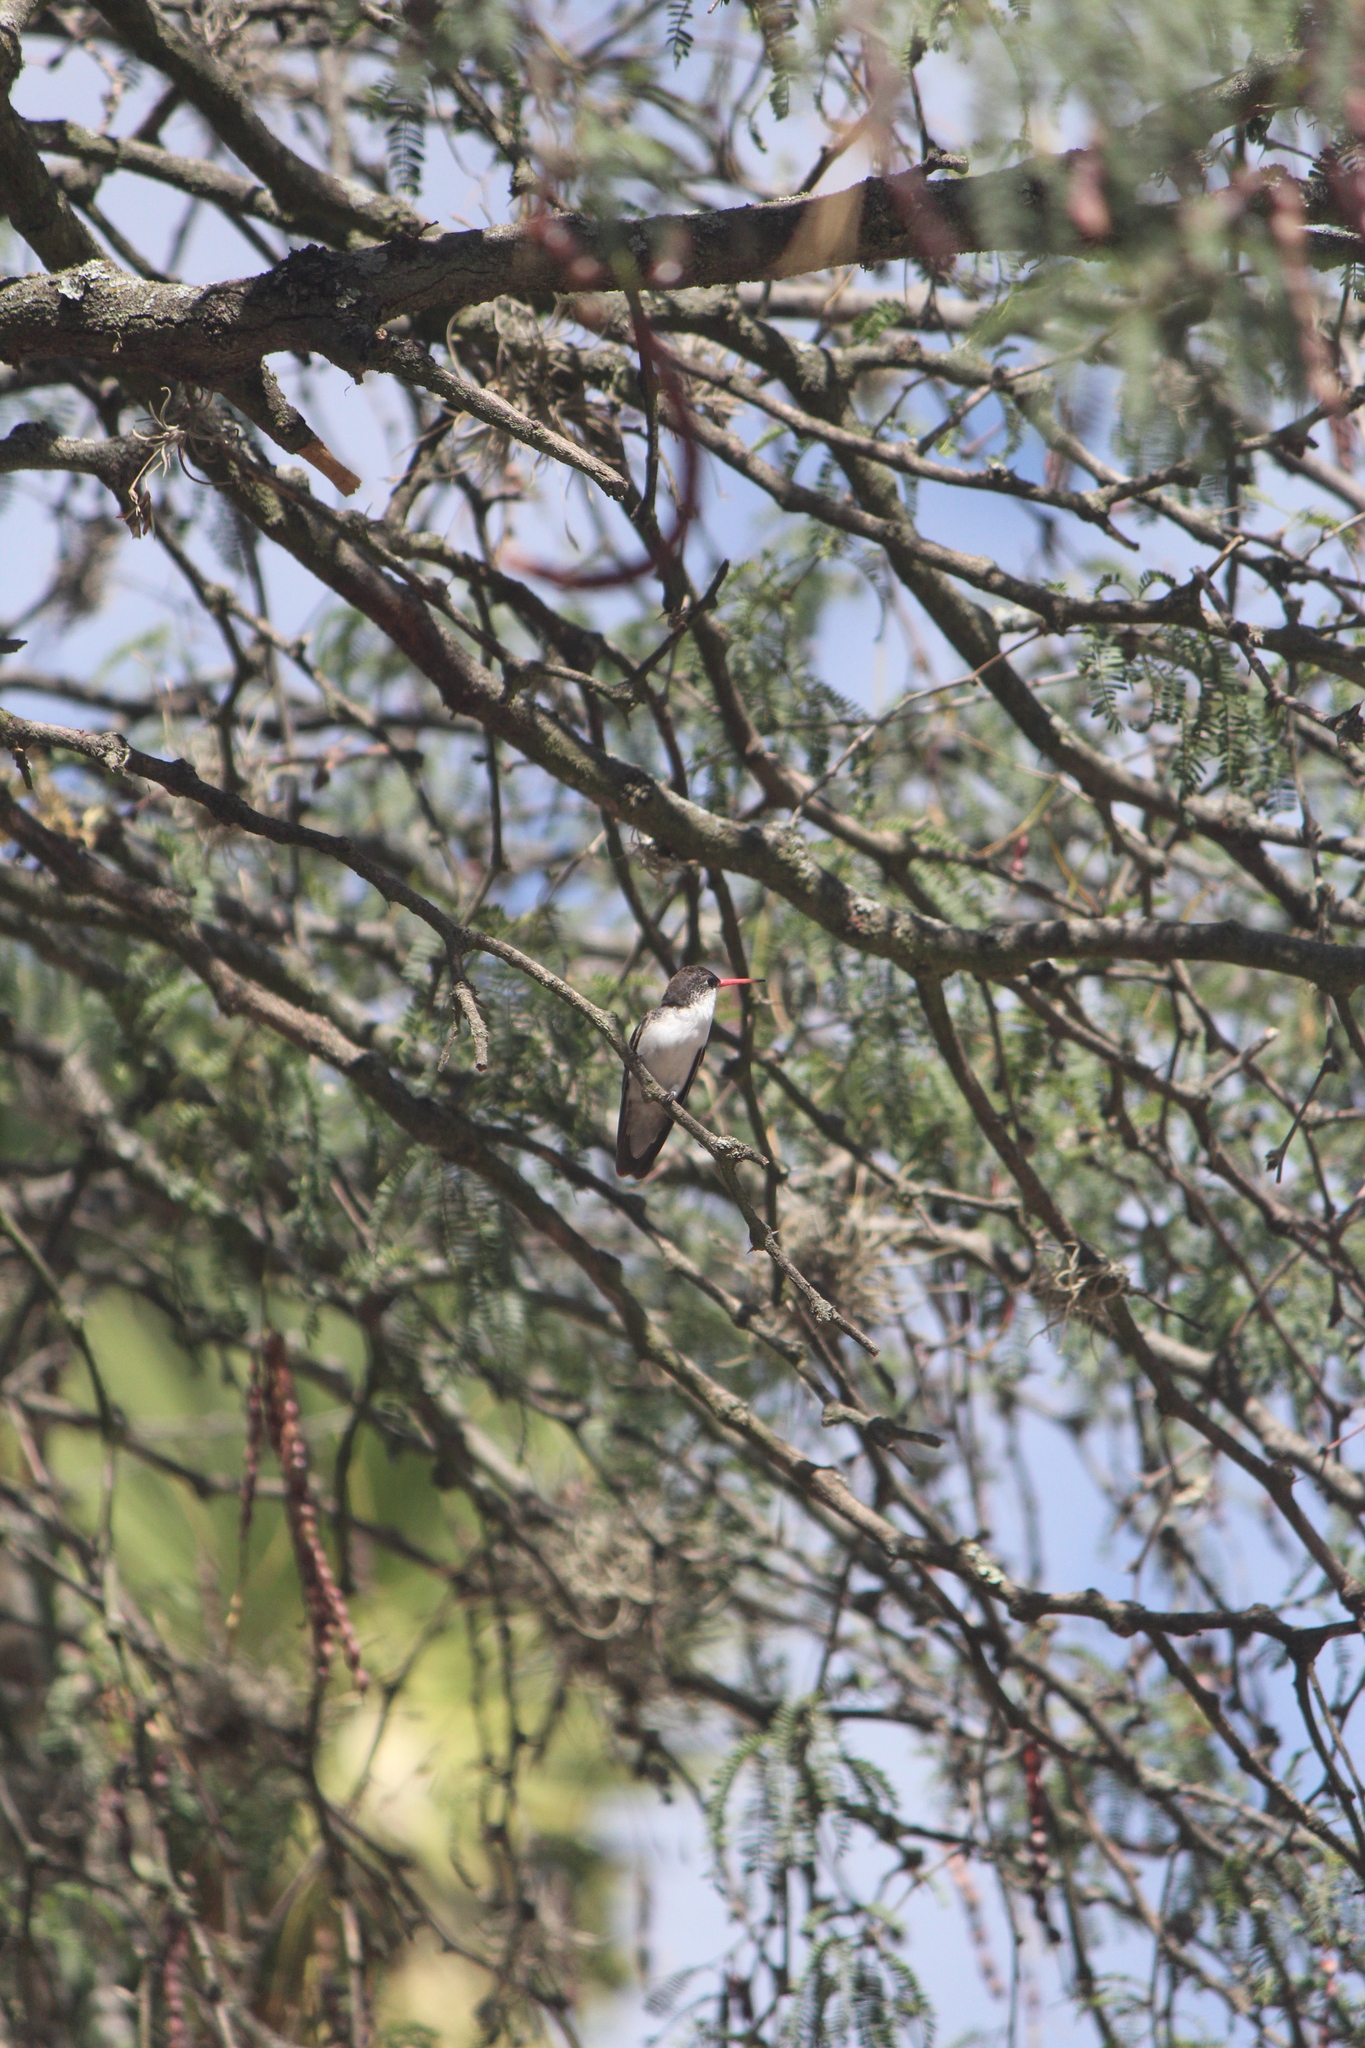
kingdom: Animalia
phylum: Chordata
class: Aves
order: Apodiformes
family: Trochilidae
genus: Leucolia
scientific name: Leucolia violiceps
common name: Violet-crowned hummingbird
